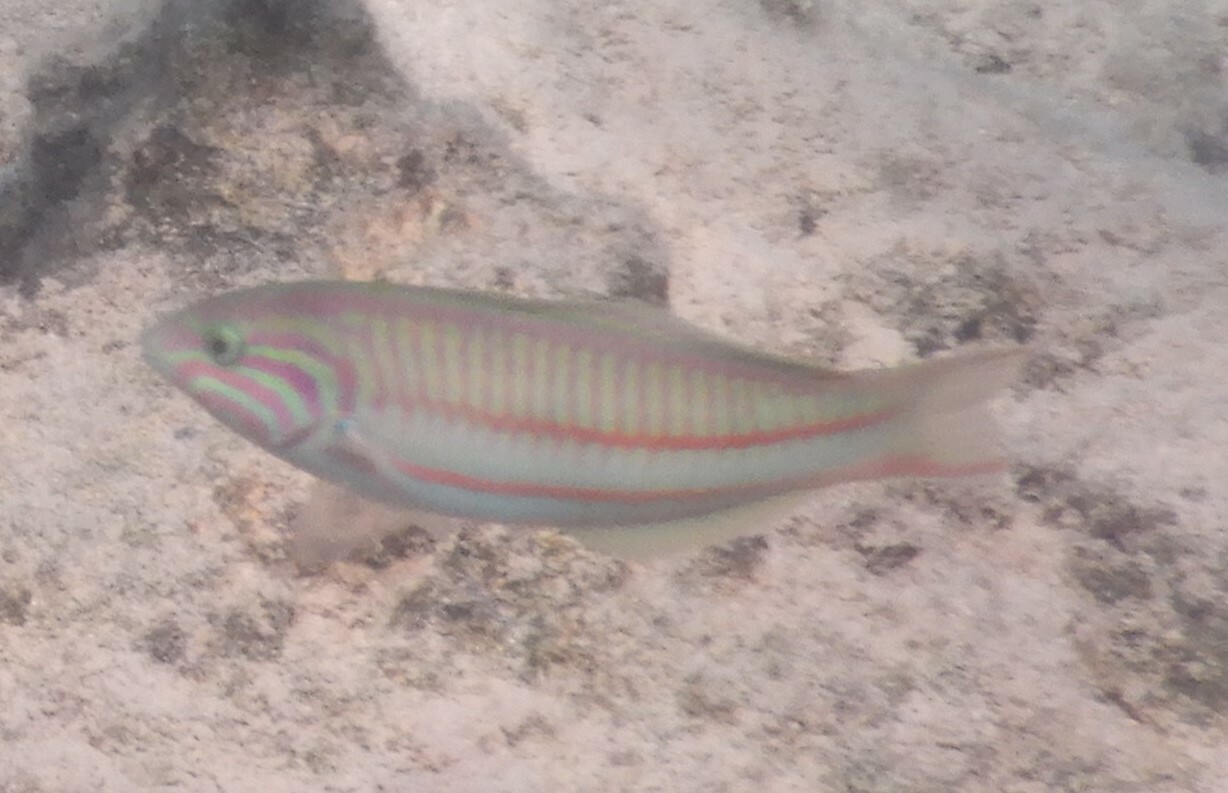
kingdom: Animalia
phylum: Chordata
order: Perciformes
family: Labridae
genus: Thalassoma
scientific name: Thalassoma rueppellii
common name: Klunzinger's wrasse
